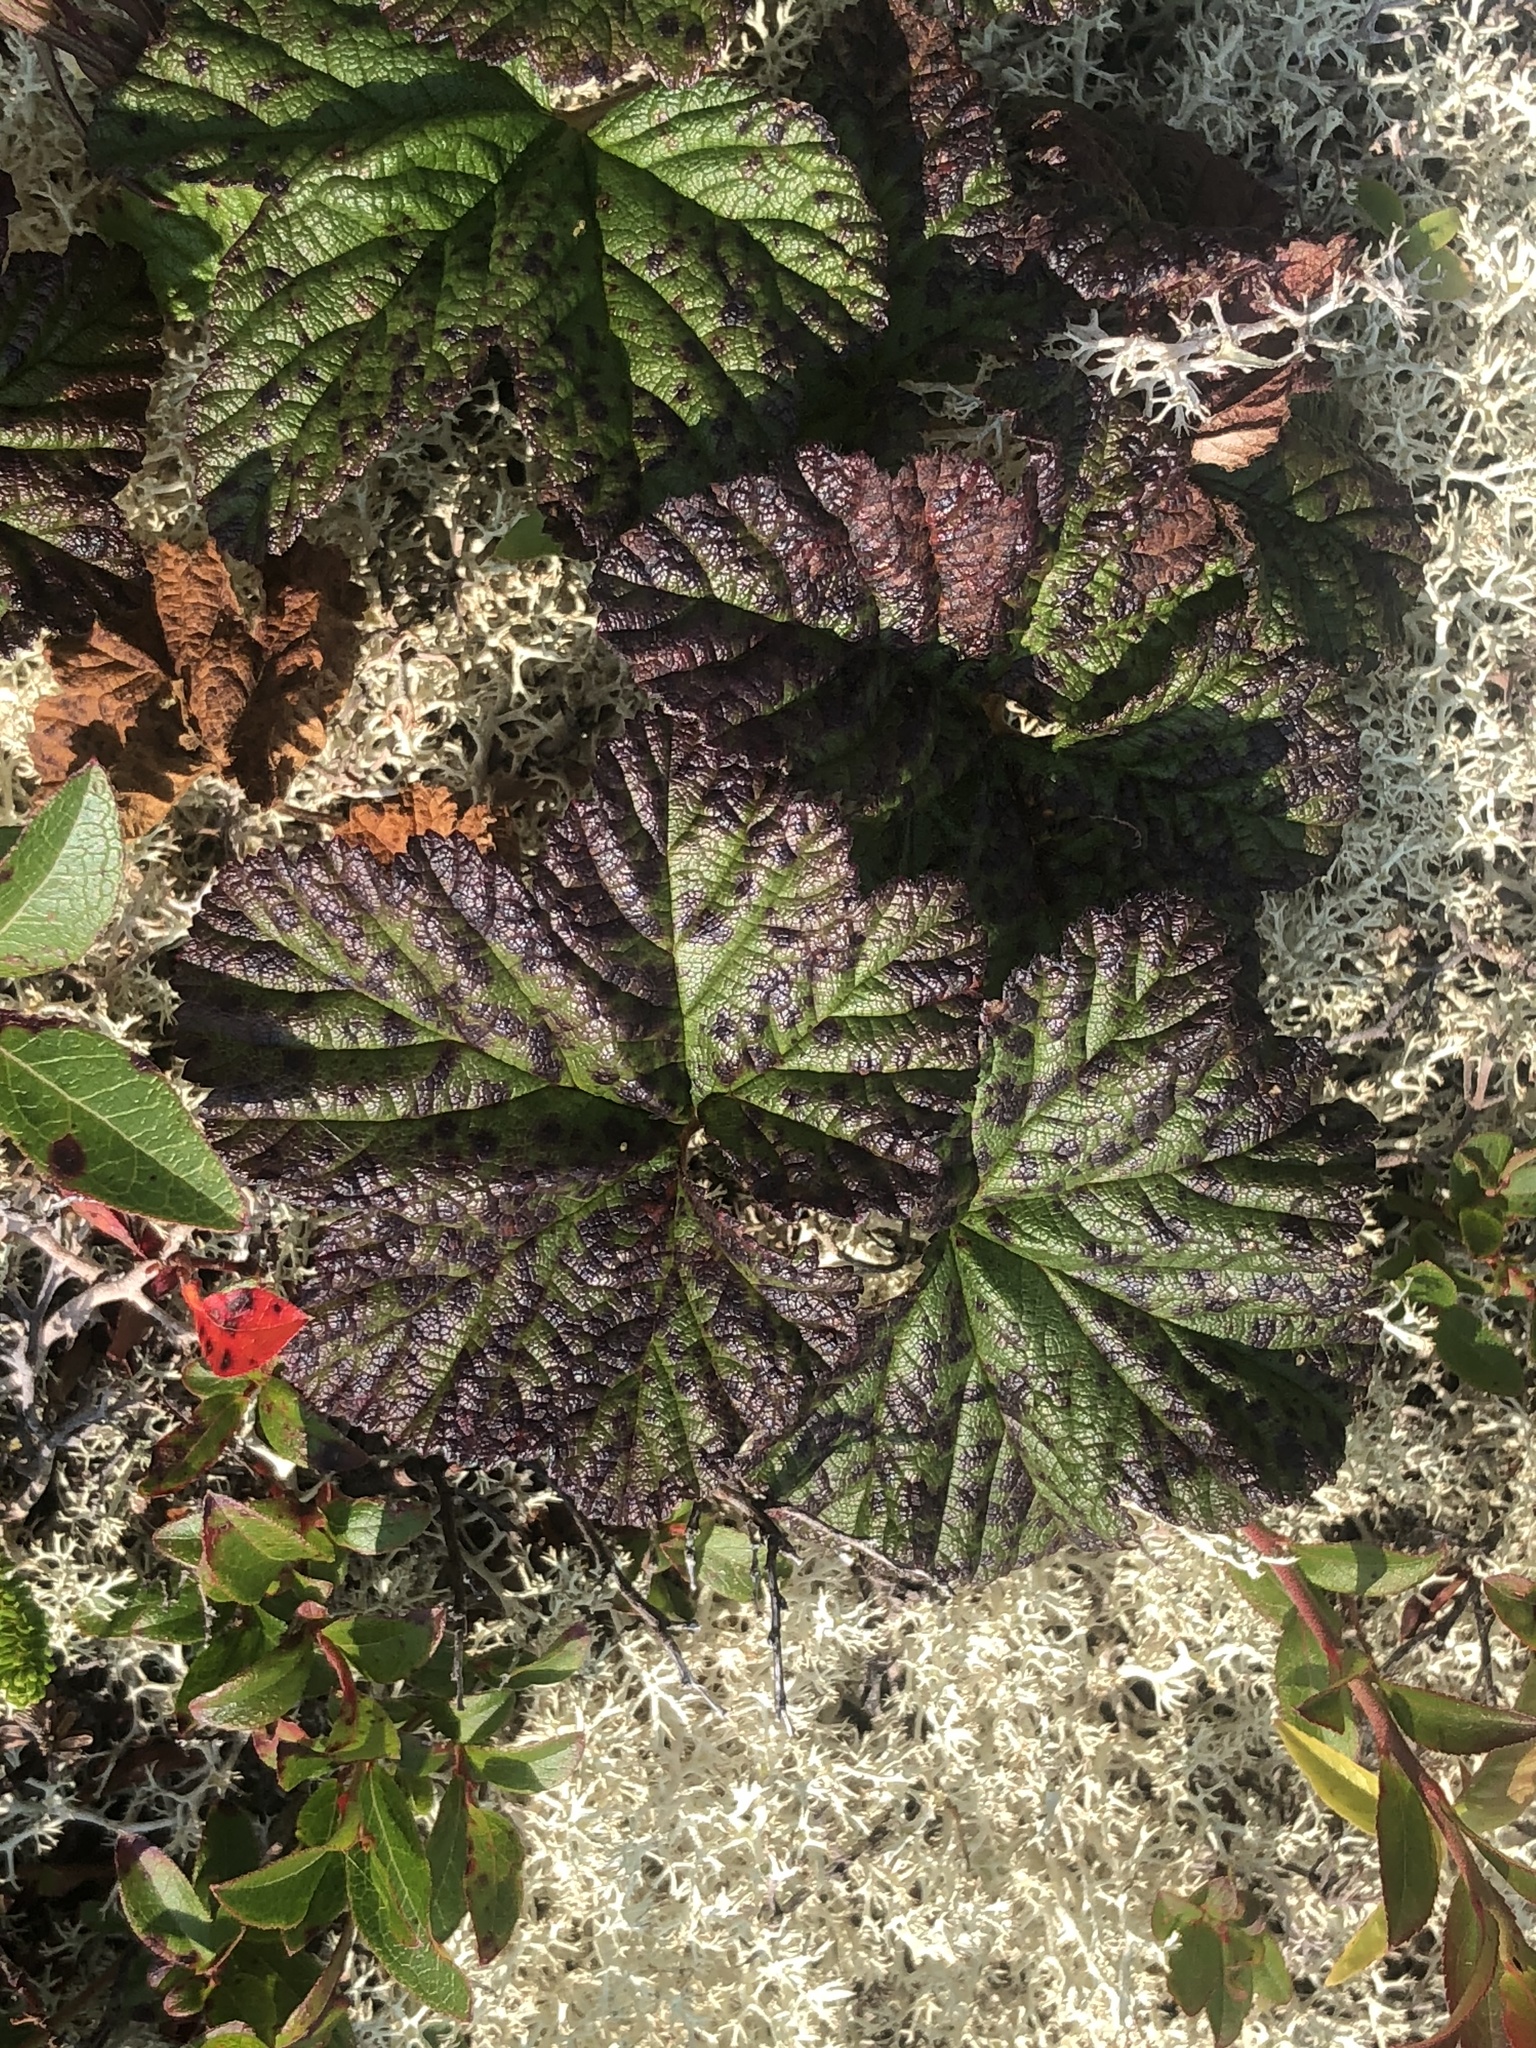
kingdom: Plantae
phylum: Tracheophyta
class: Magnoliopsida
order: Rosales
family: Rosaceae
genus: Rubus
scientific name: Rubus chamaemorus
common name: Cloudberry
